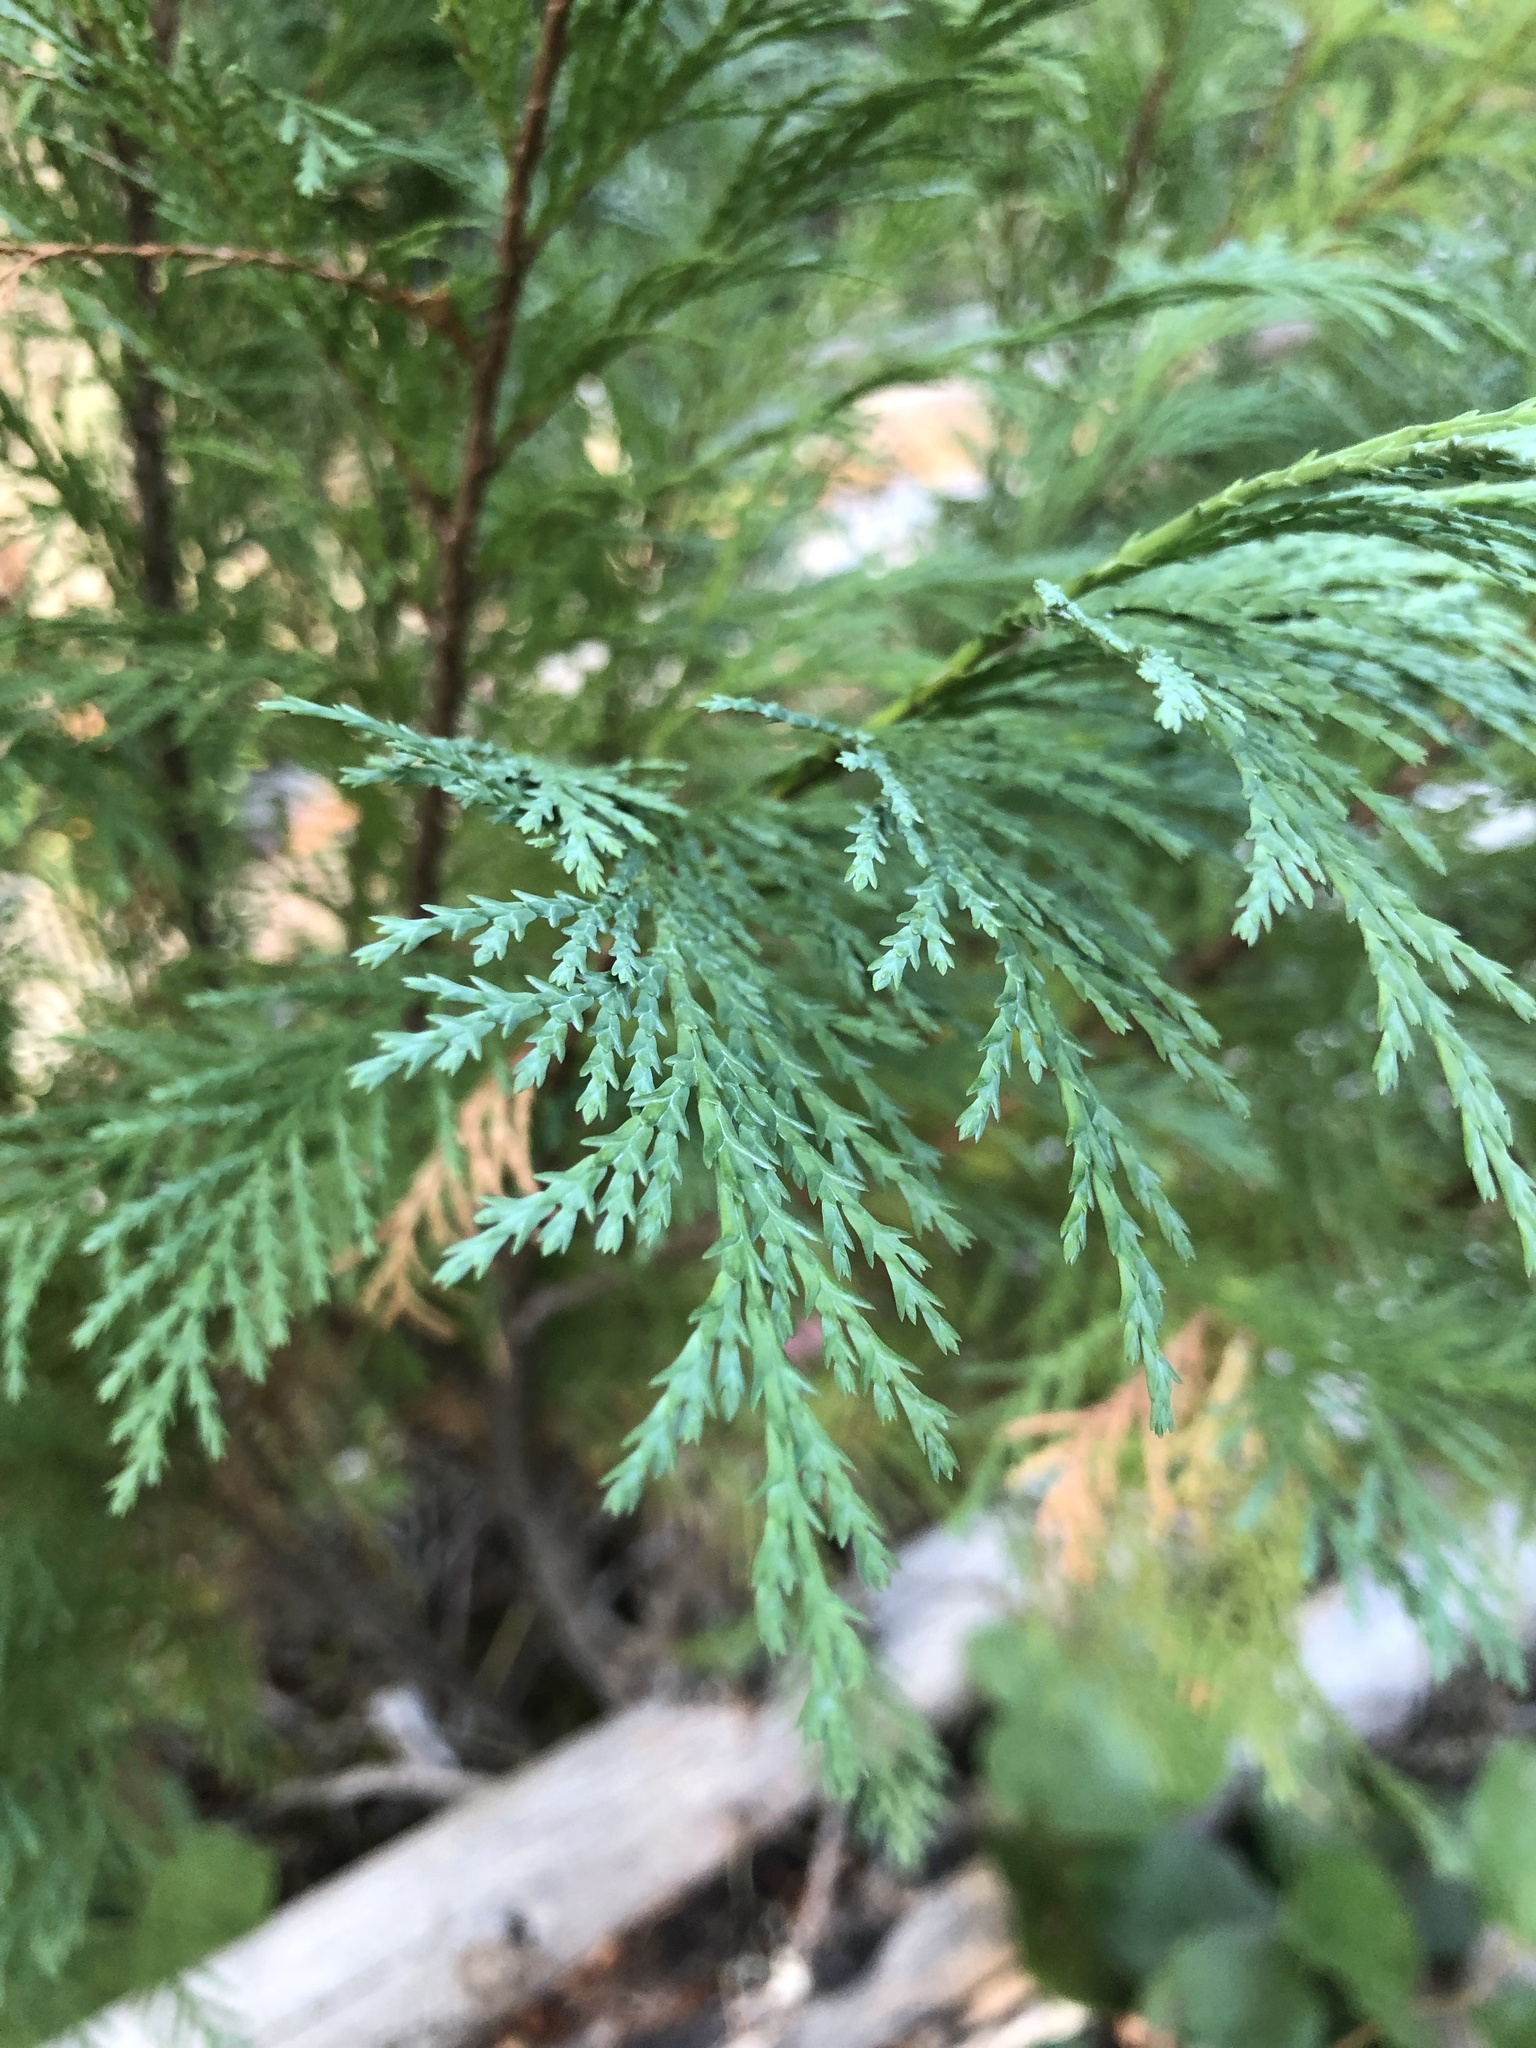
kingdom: Plantae
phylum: Tracheophyta
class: Pinopsida
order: Pinales
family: Cupressaceae
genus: Xanthocyparis
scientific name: Xanthocyparis nootkatensis
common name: Nootka cypress
